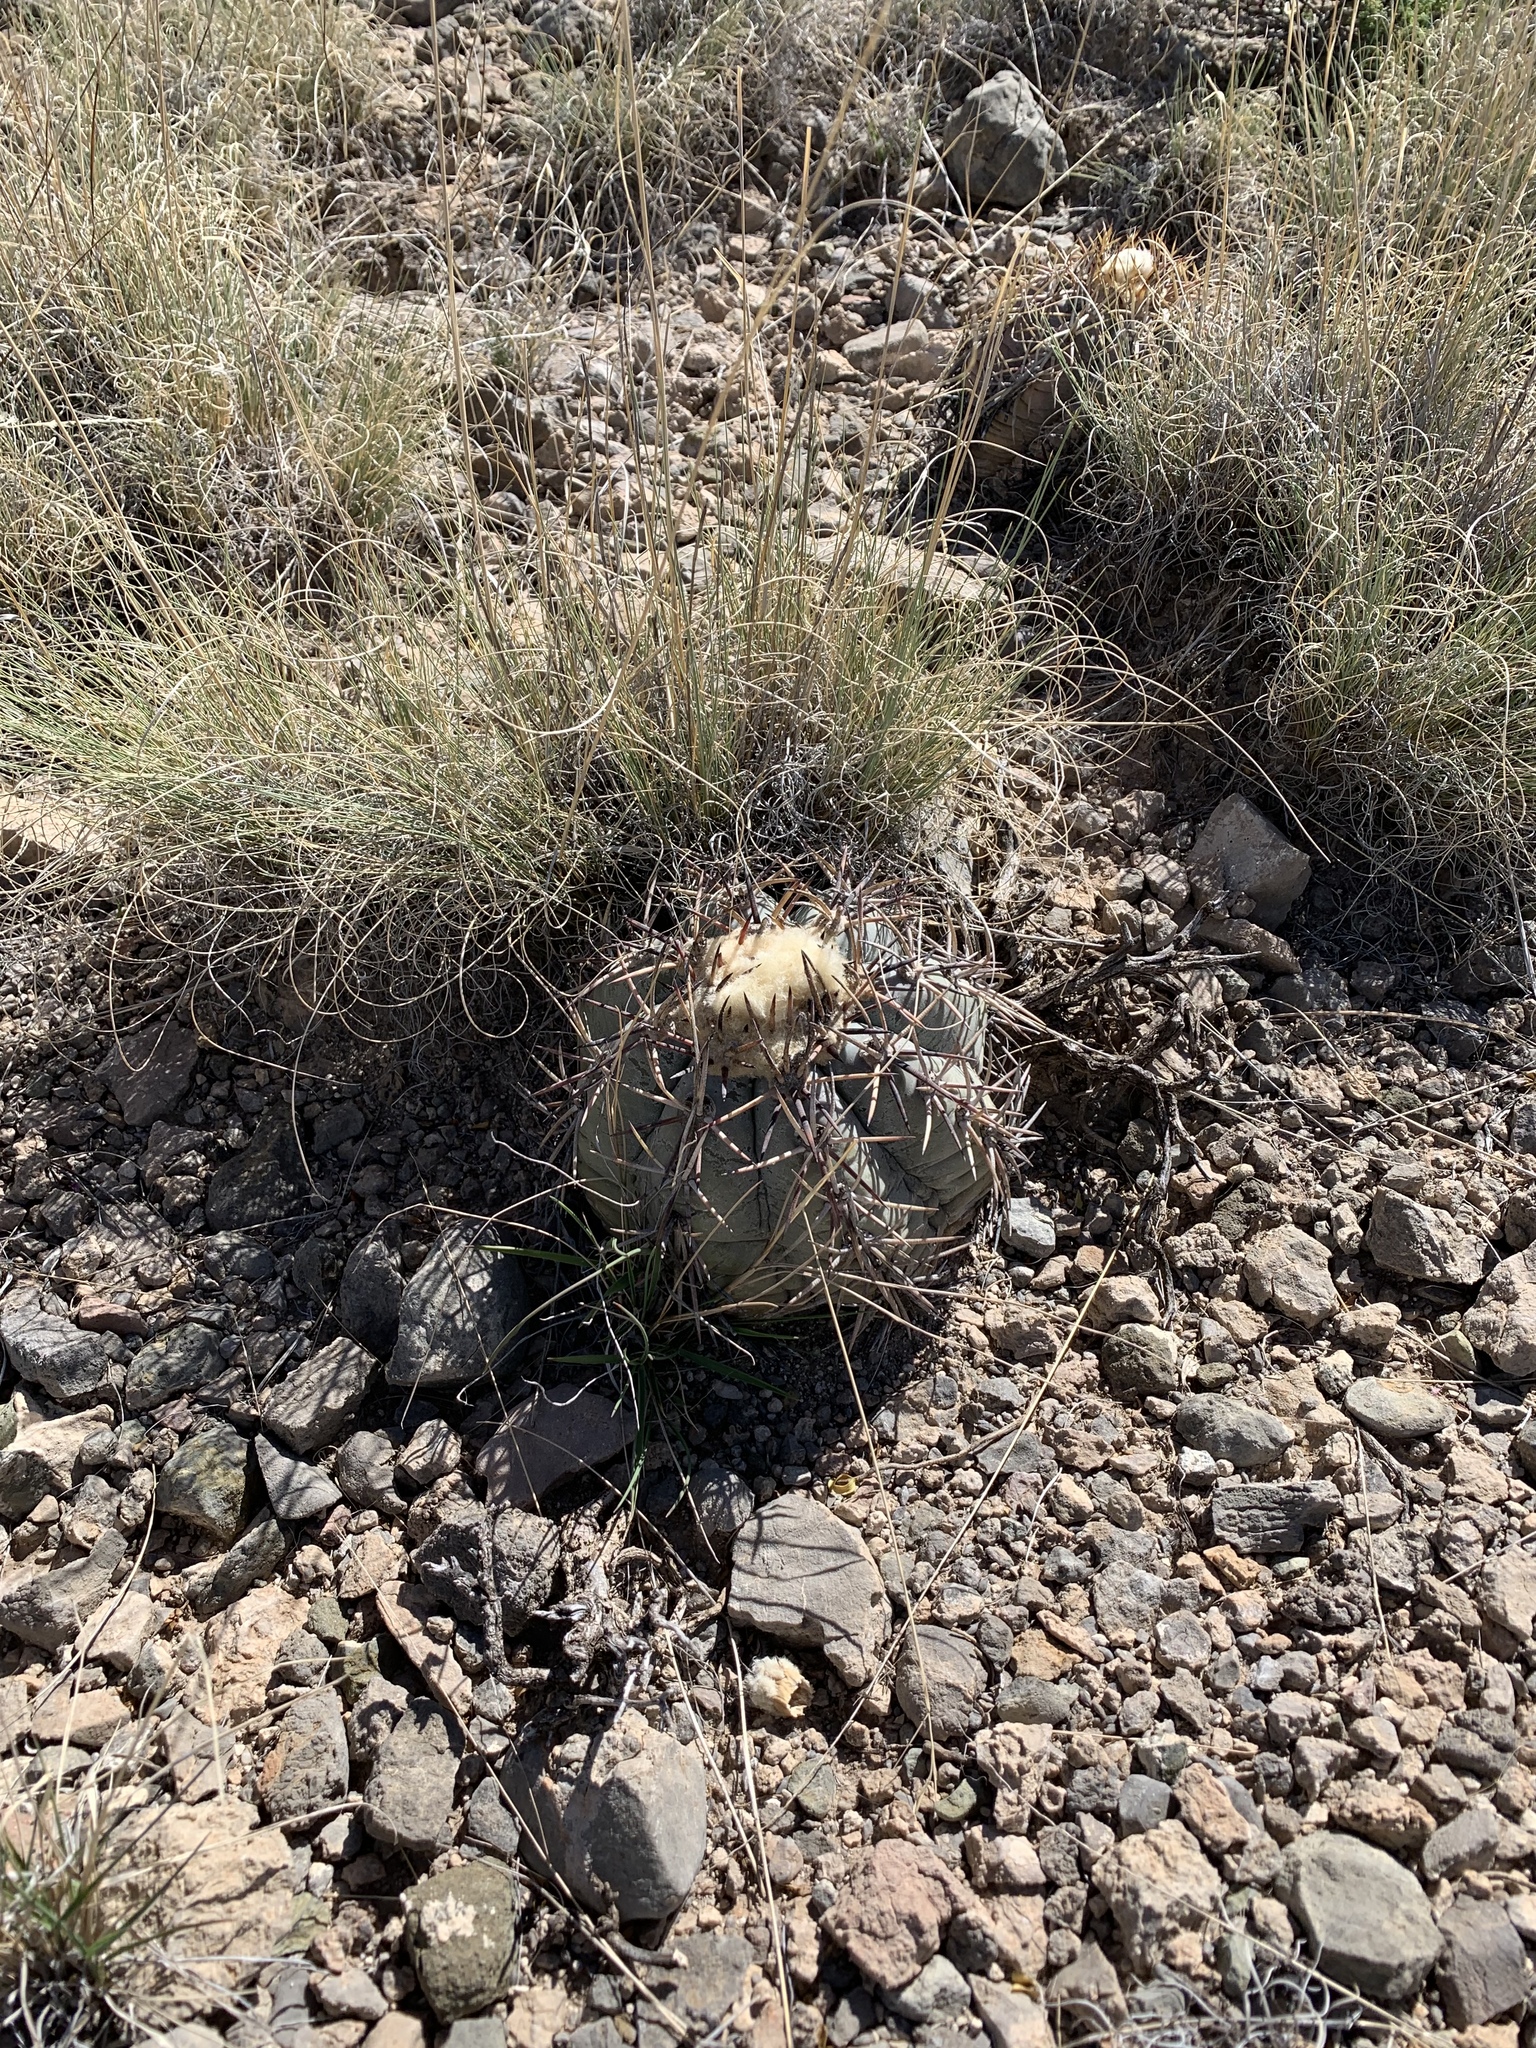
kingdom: Plantae
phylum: Tracheophyta
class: Magnoliopsida
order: Caryophyllales
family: Cactaceae
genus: Echinocactus
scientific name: Echinocactus horizonthalonius
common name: Devilshead
